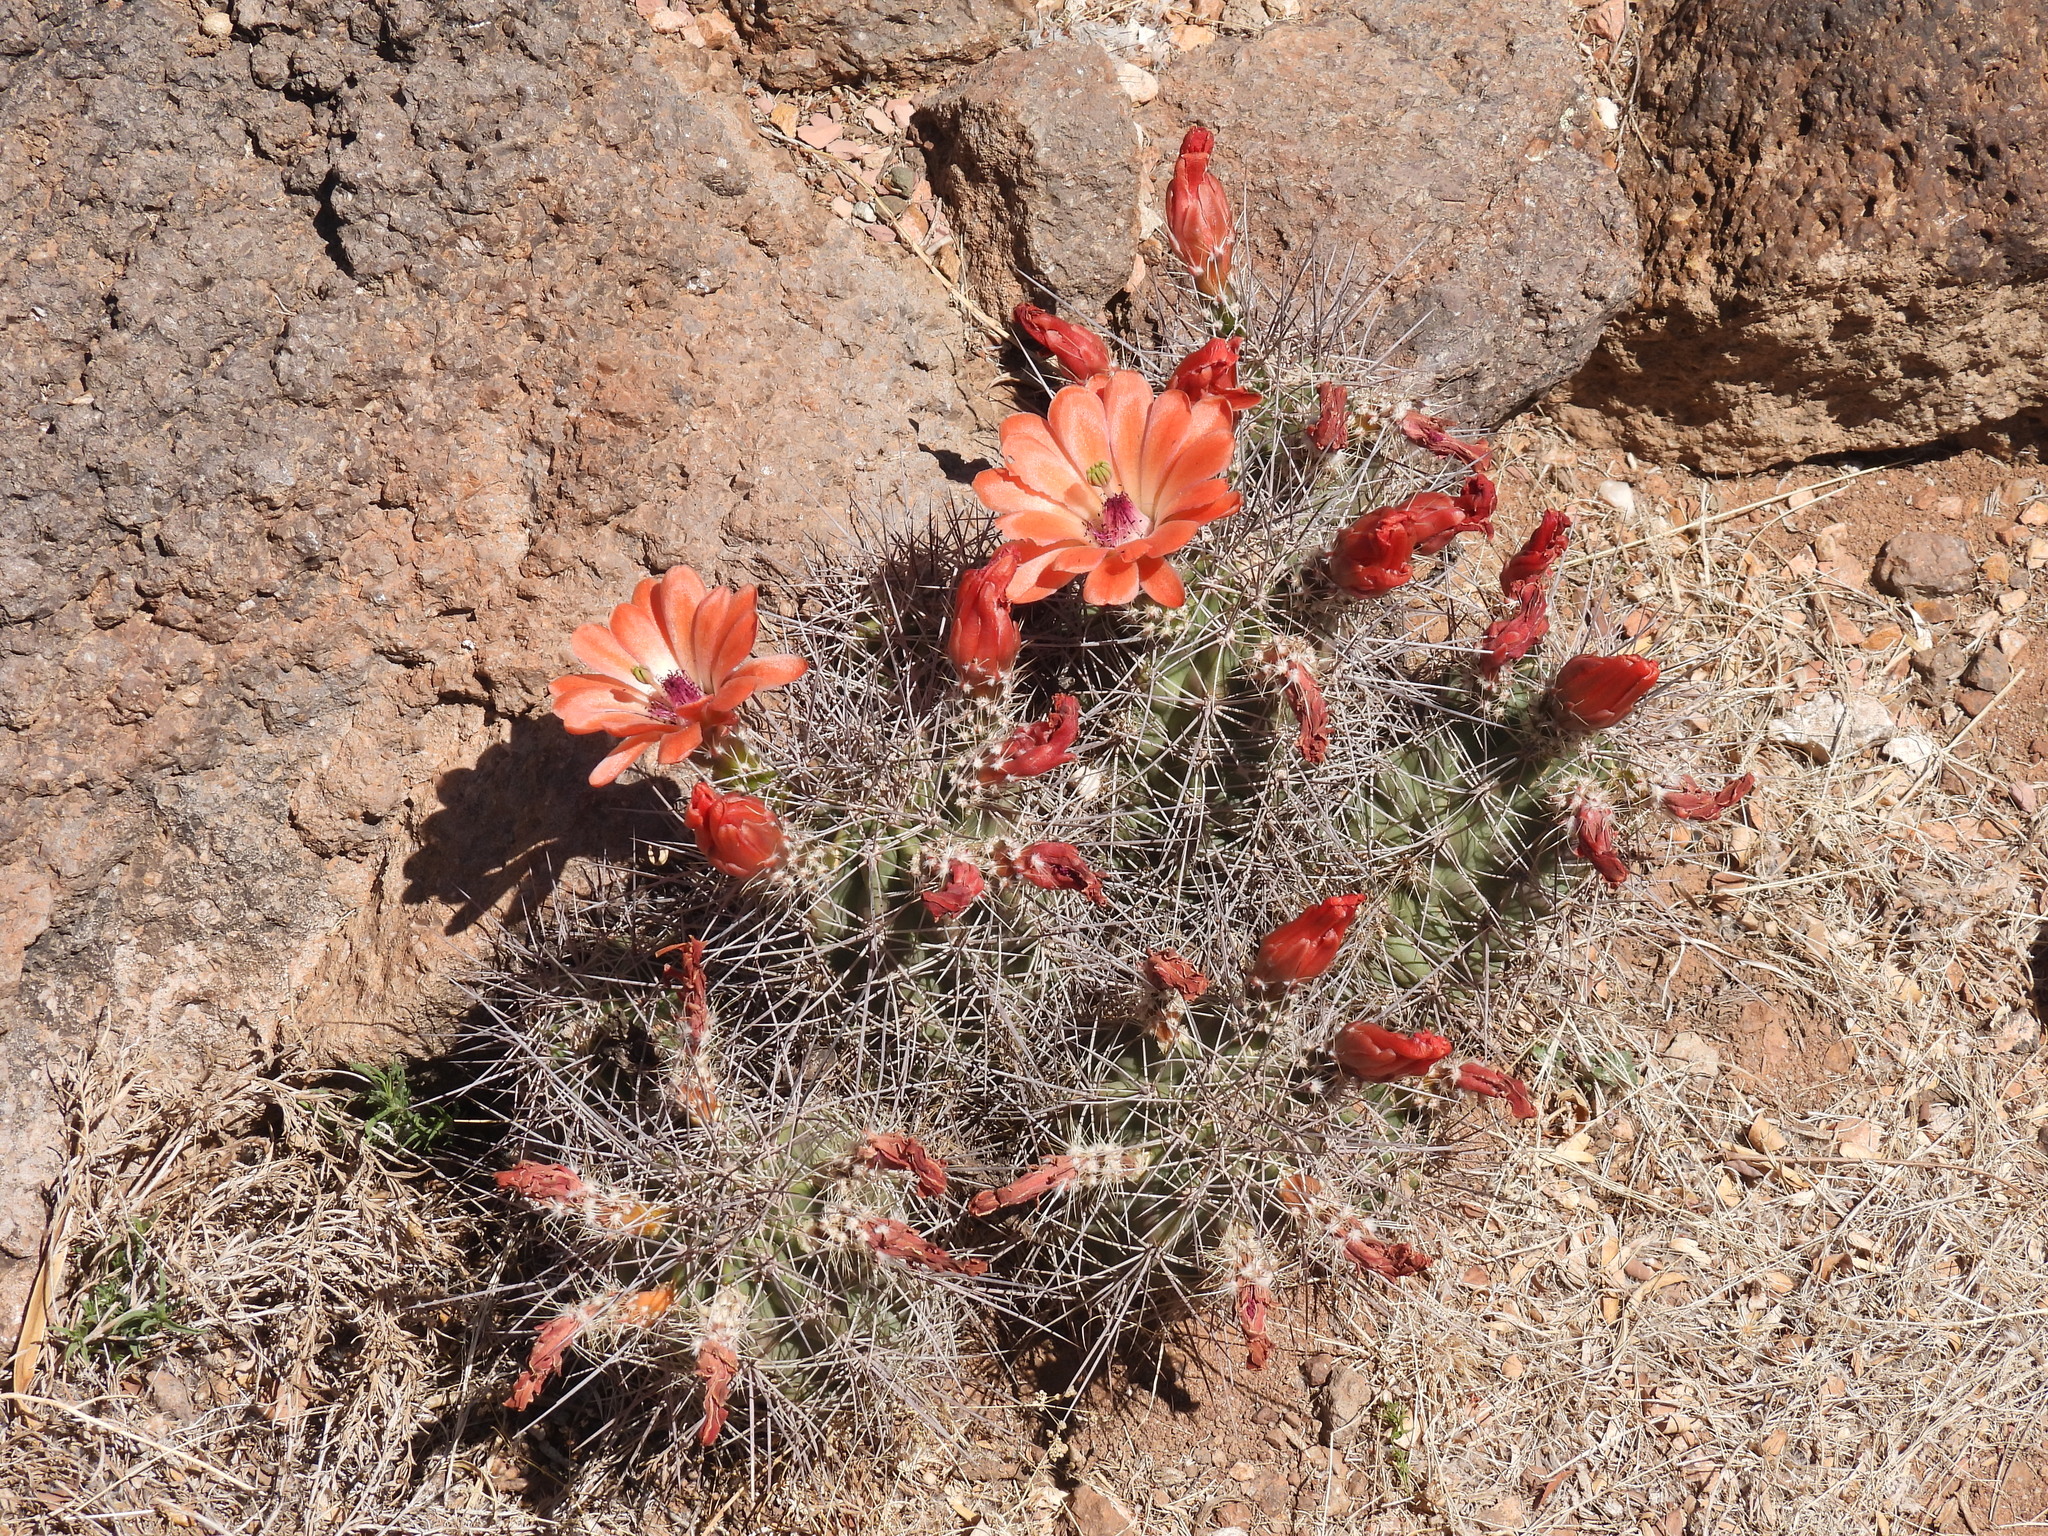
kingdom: Plantae
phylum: Tracheophyta
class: Magnoliopsida
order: Caryophyllales
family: Cactaceae
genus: Echinocereus
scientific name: Echinocereus coccineus
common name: Scarlet hedgehog cactus
